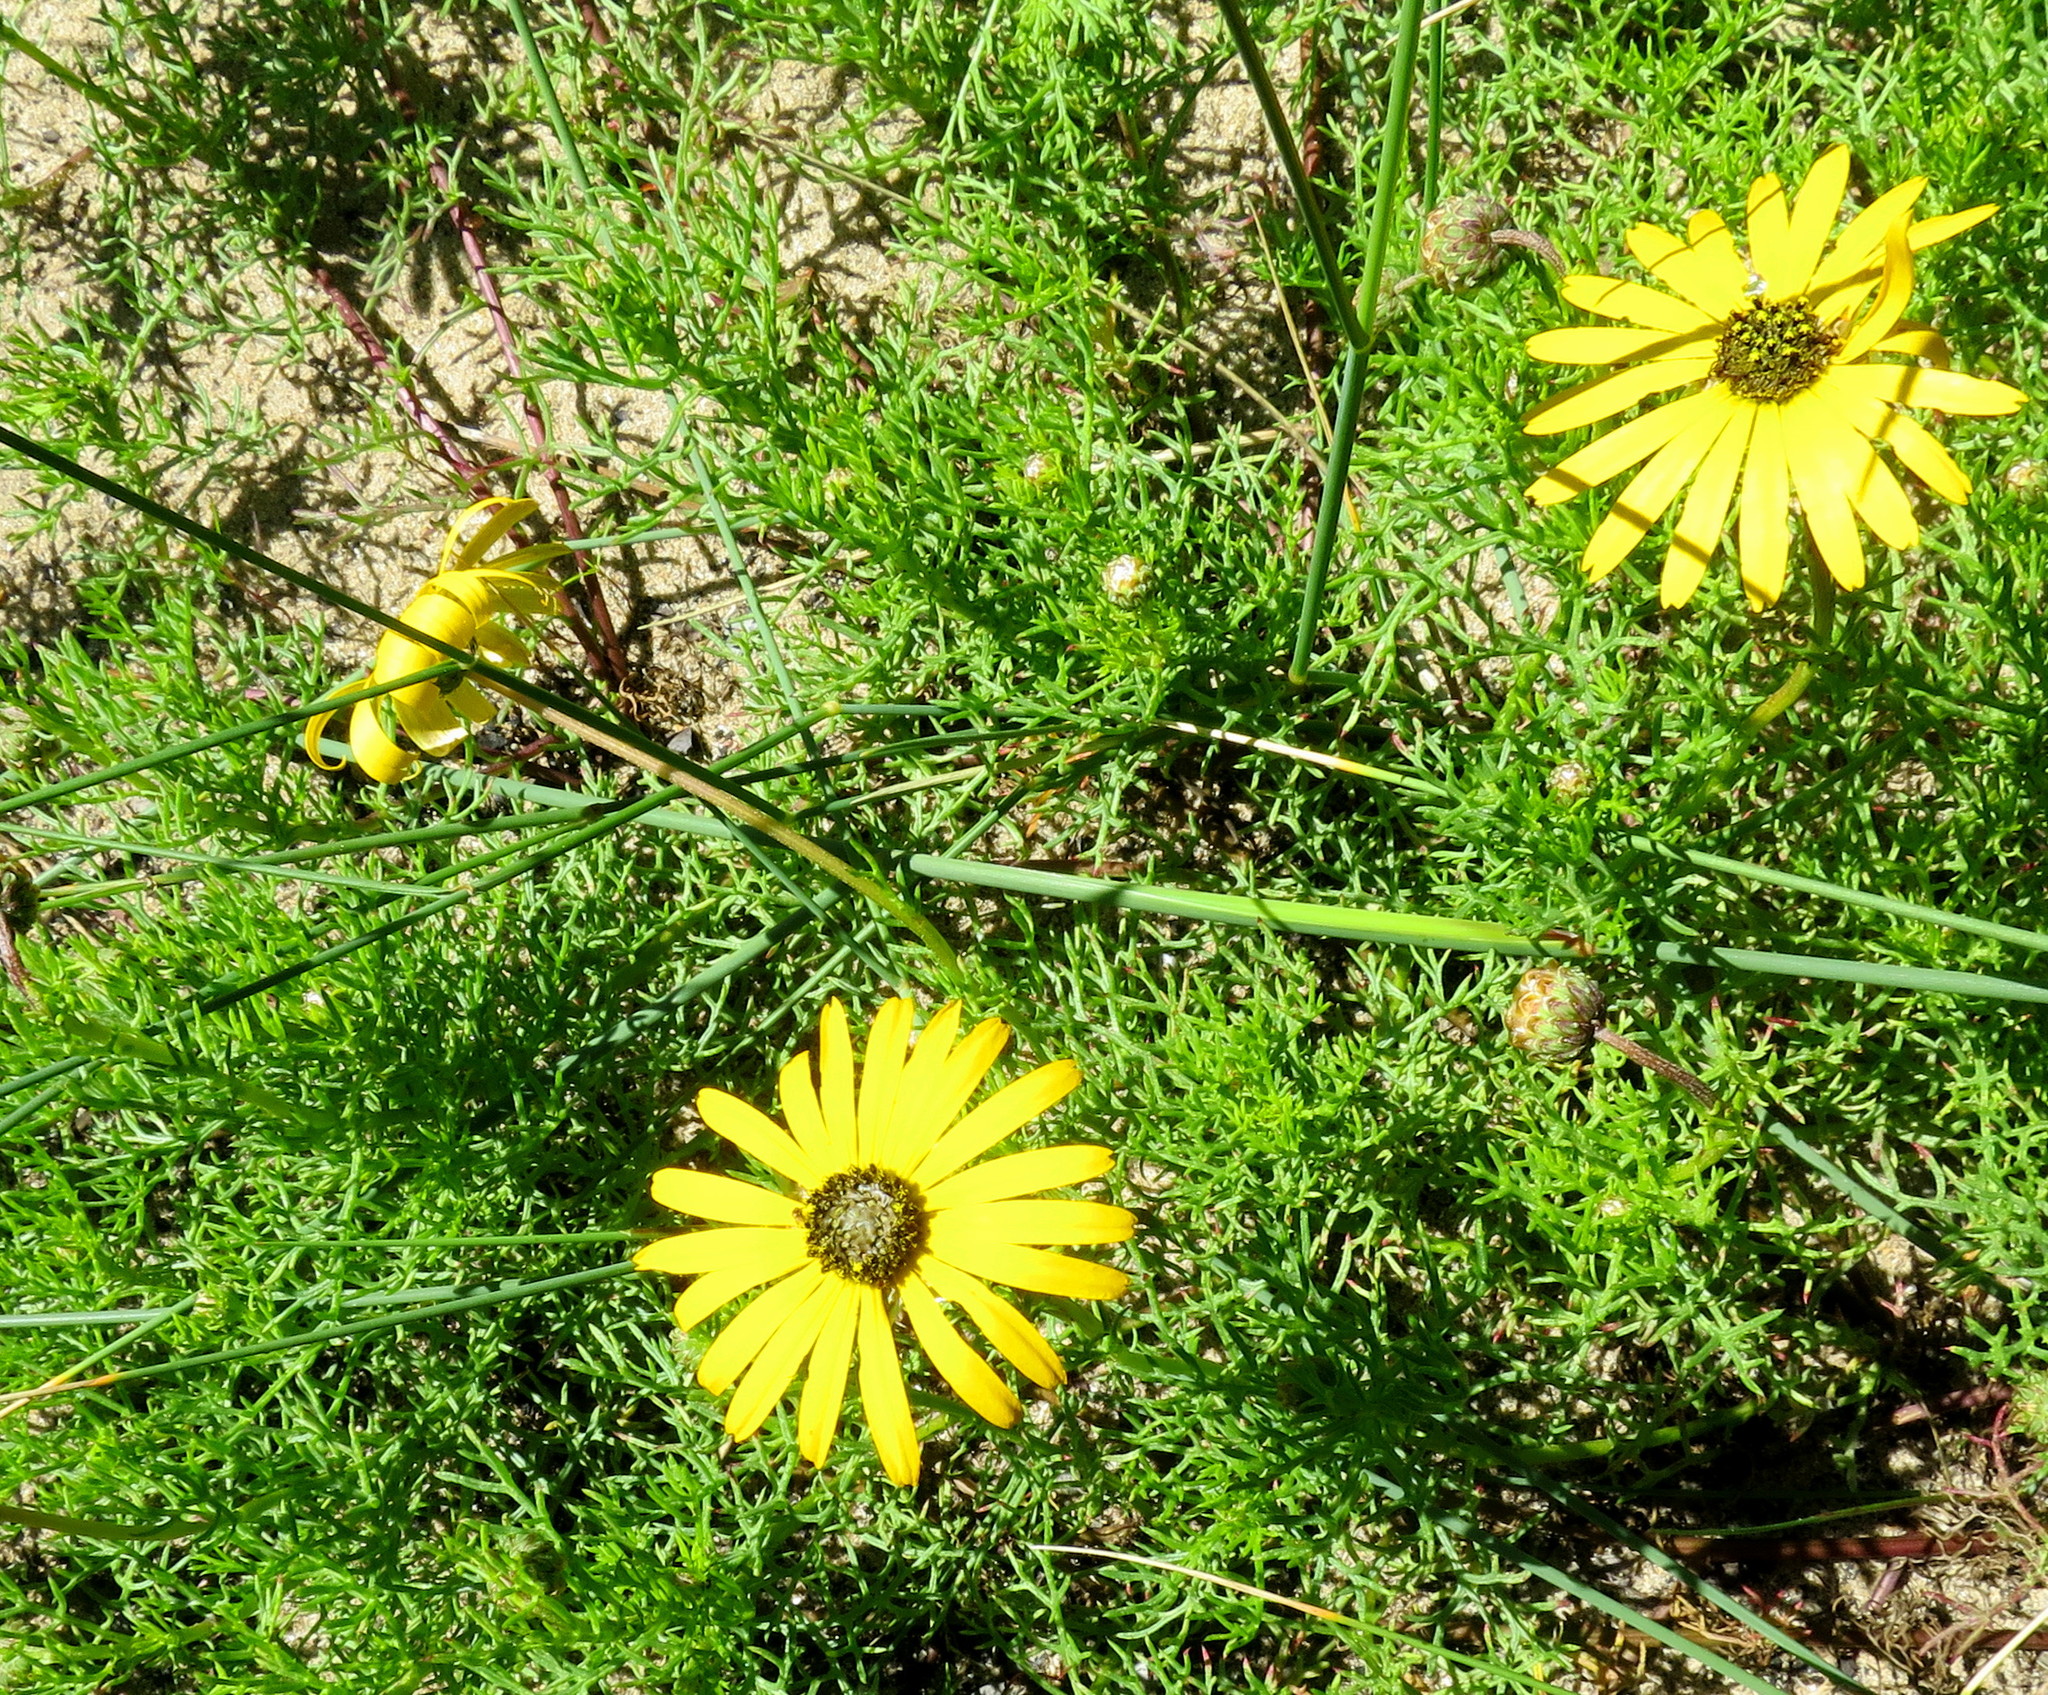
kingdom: Plantae
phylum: Tracheophyta
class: Magnoliopsida
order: Asterales
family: Asteraceae
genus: Ursinia
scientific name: Ursinia chrysanthemoides
